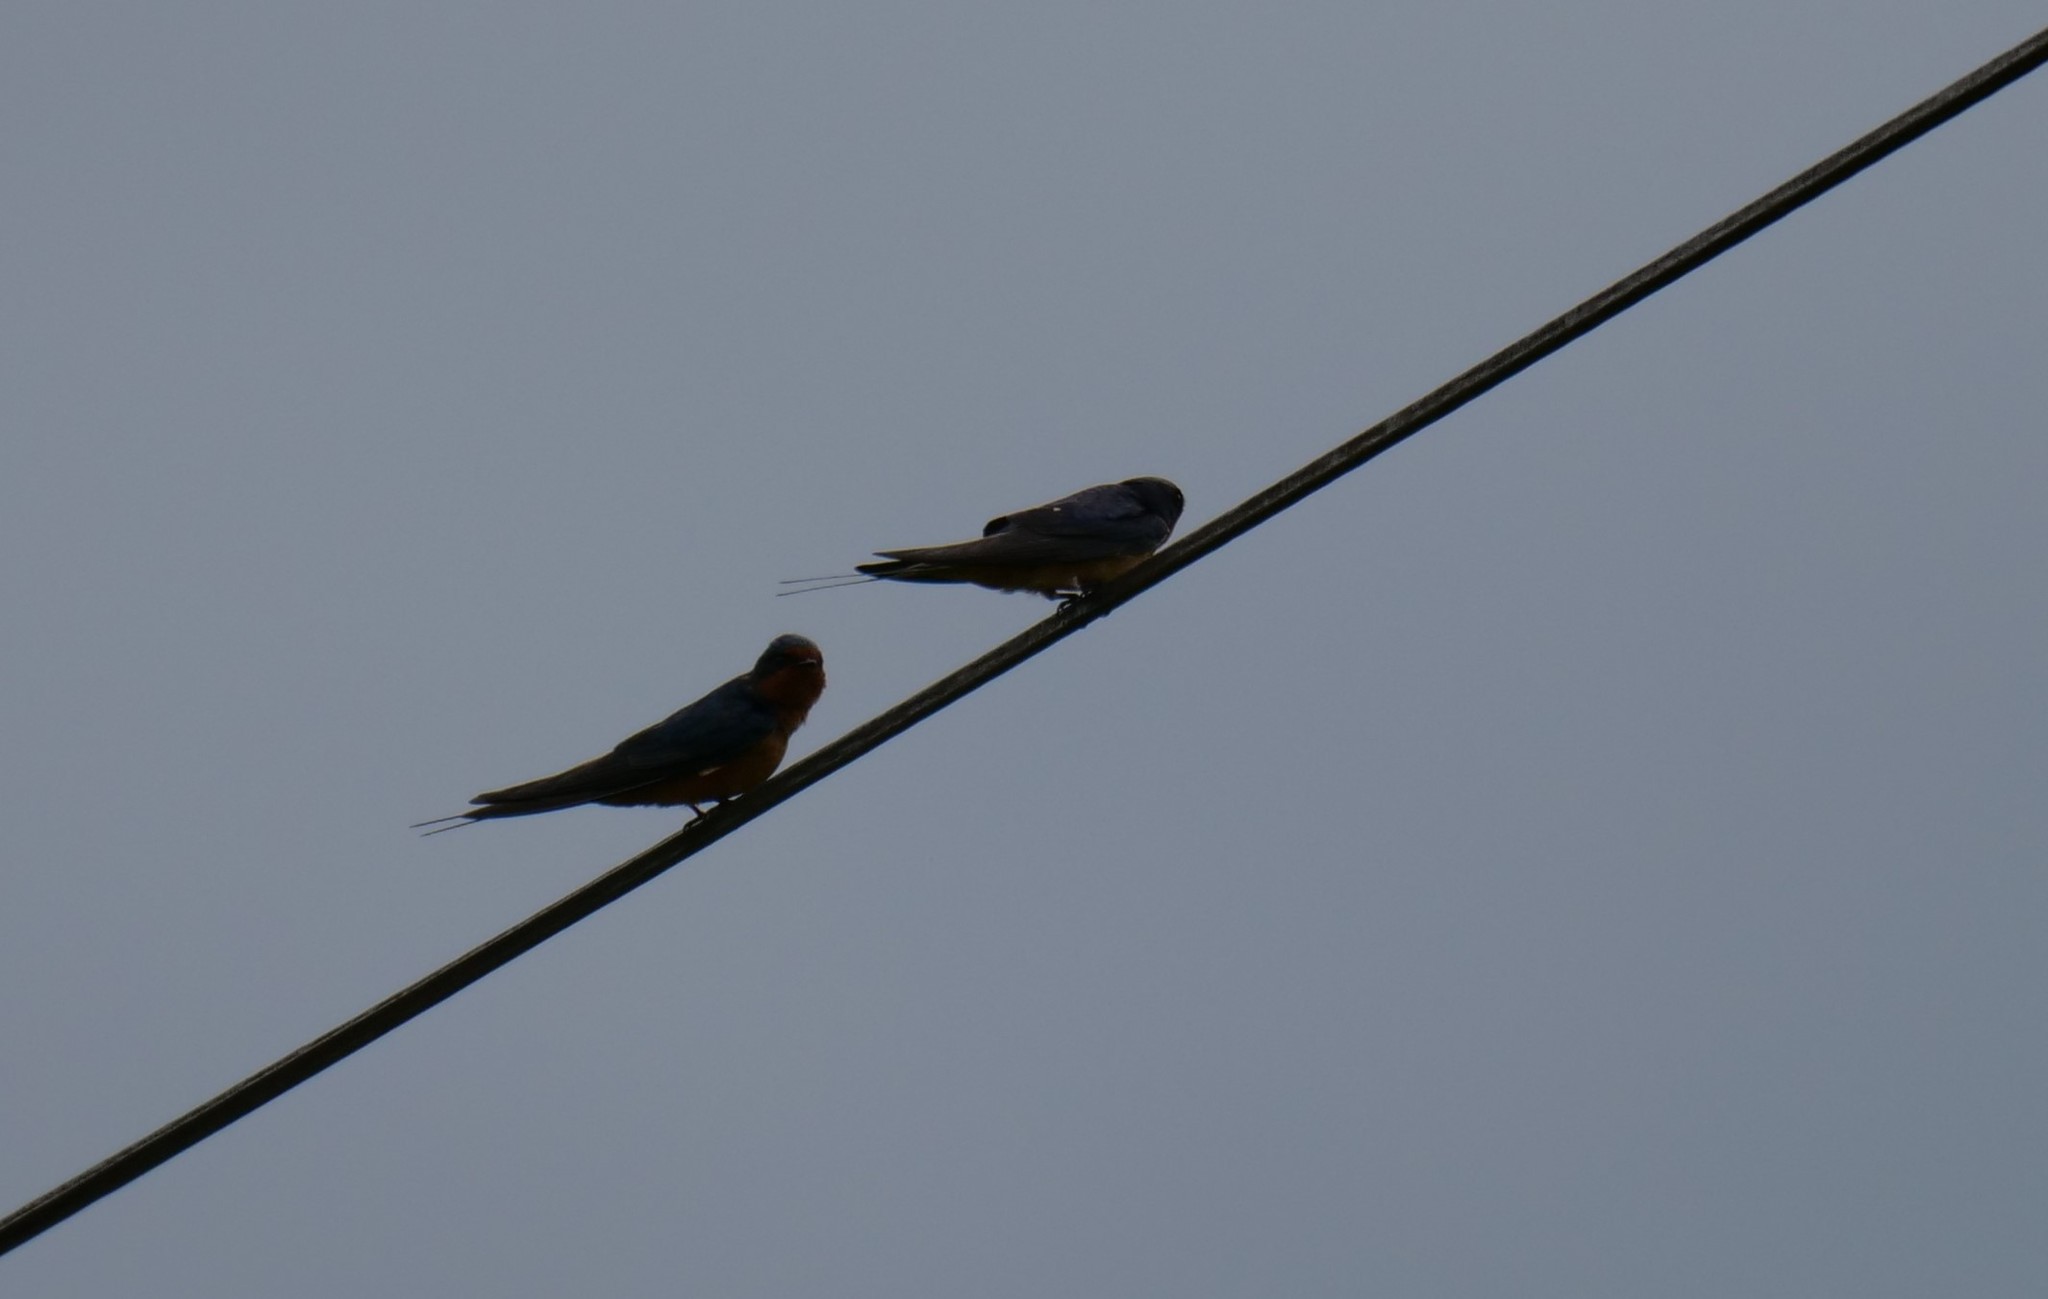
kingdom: Animalia
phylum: Chordata
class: Aves
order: Passeriformes
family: Hirundinidae
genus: Hirundo
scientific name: Hirundo rustica
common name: Barn swallow
